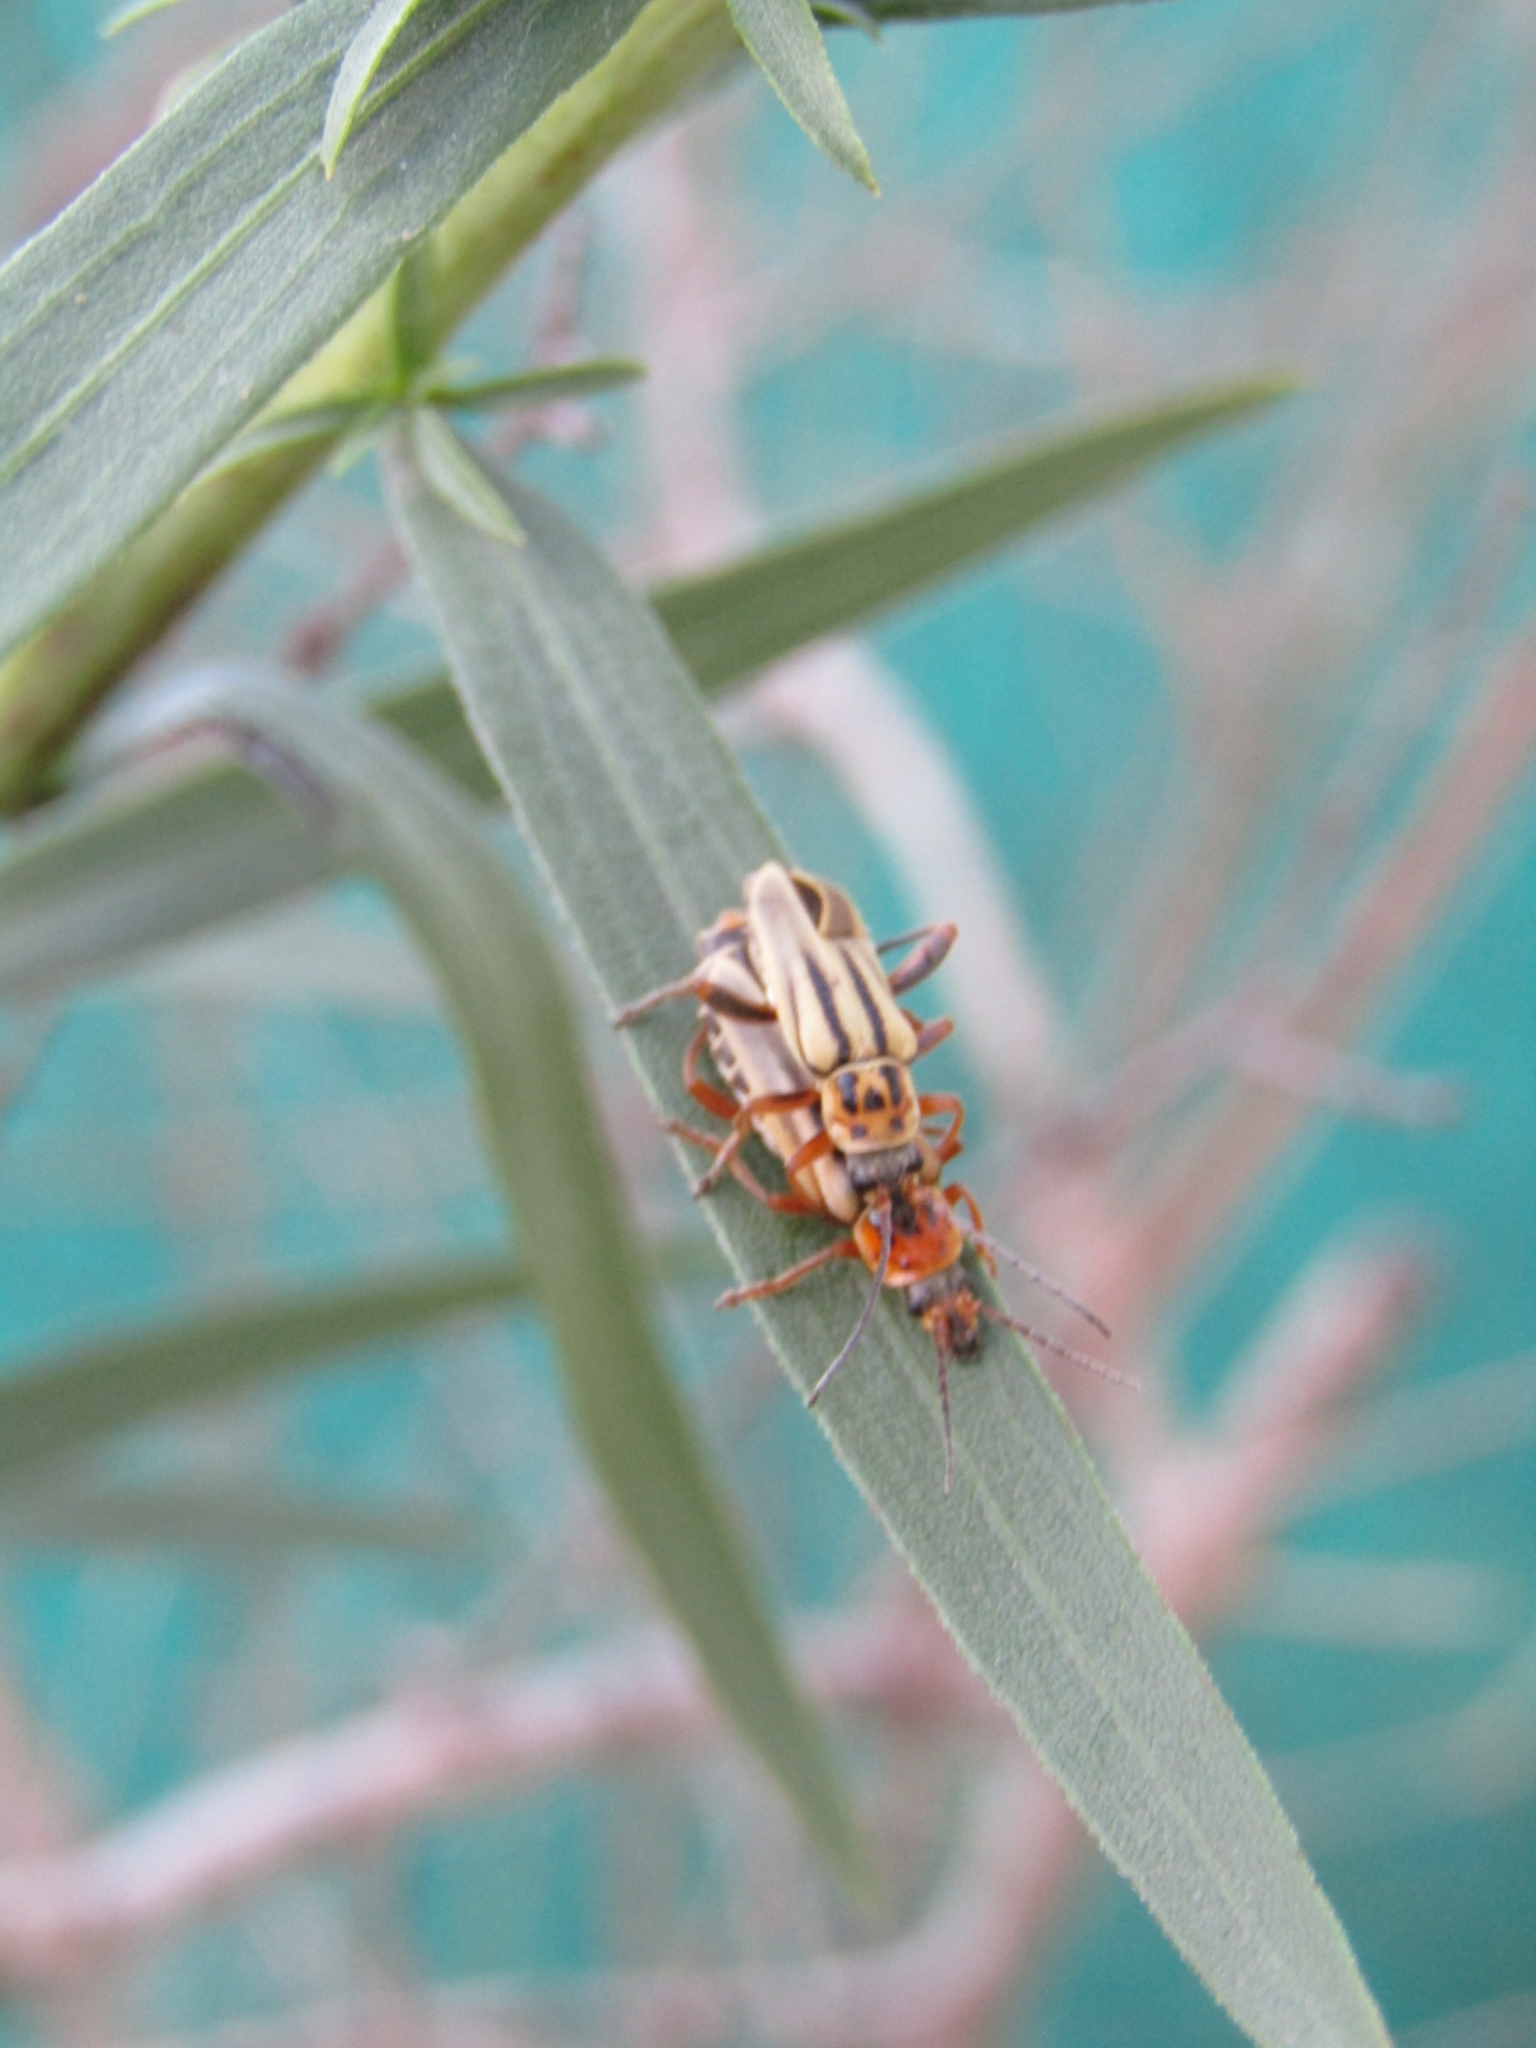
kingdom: Animalia
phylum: Arthropoda
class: Insecta
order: Coleoptera
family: Cantharidae
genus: Chauliognathus
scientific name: Chauliognathus
